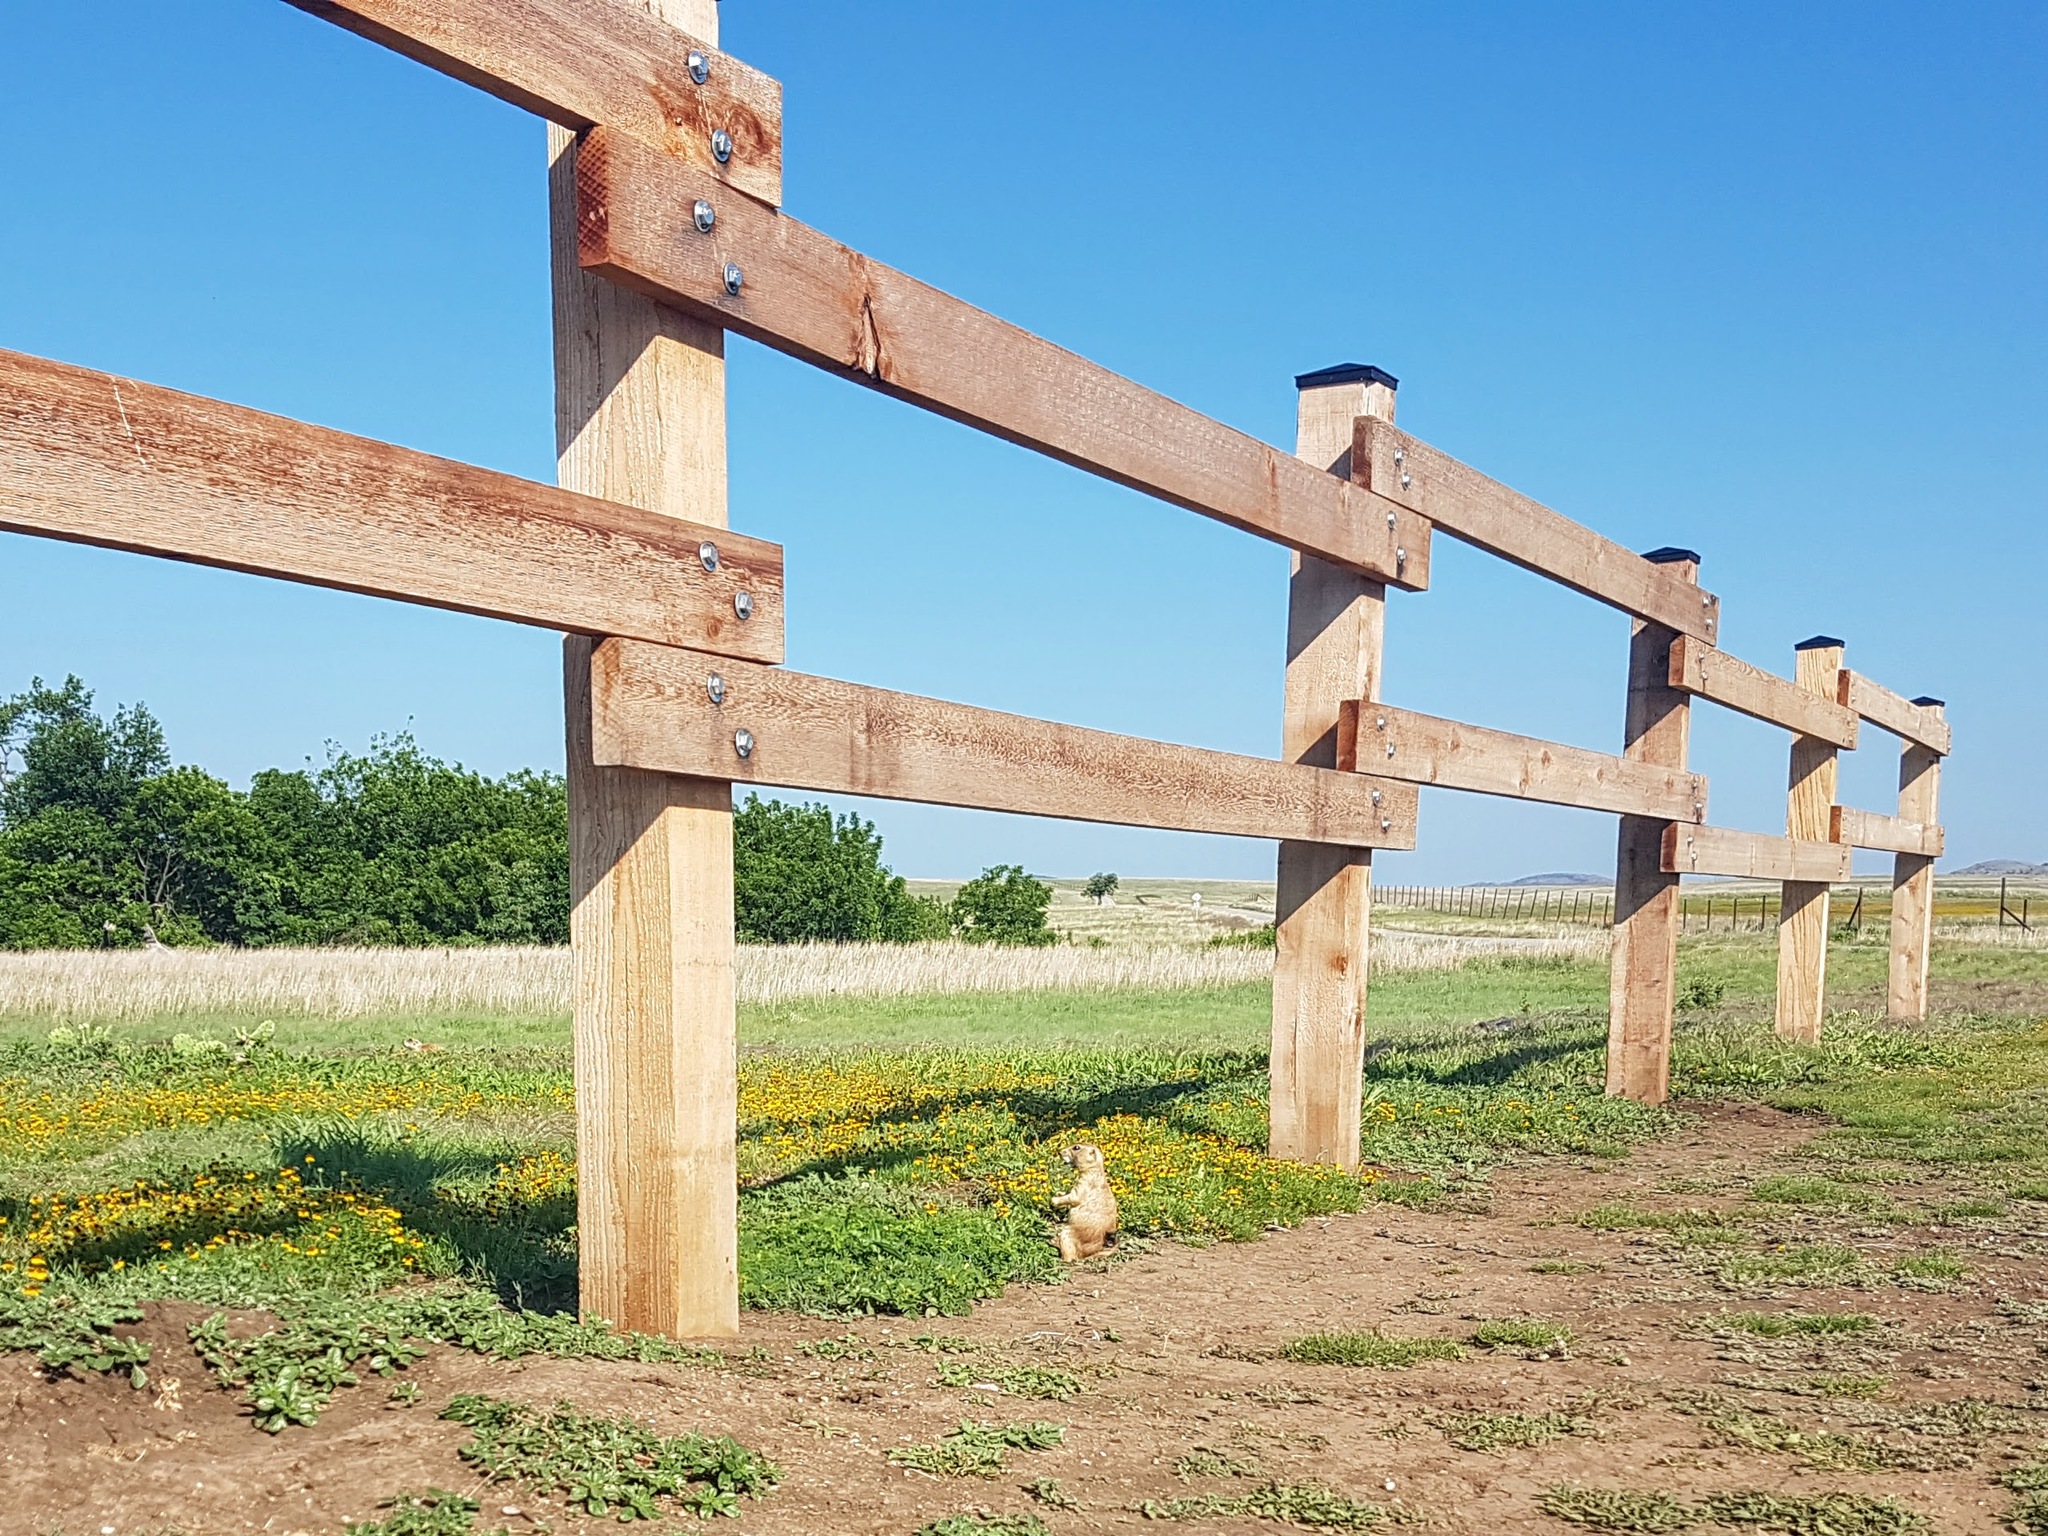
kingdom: Animalia
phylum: Chordata
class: Mammalia
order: Rodentia
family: Sciuridae
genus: Cynomys
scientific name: Cynomys ludovicianus
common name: Black-tailed prairie dog
